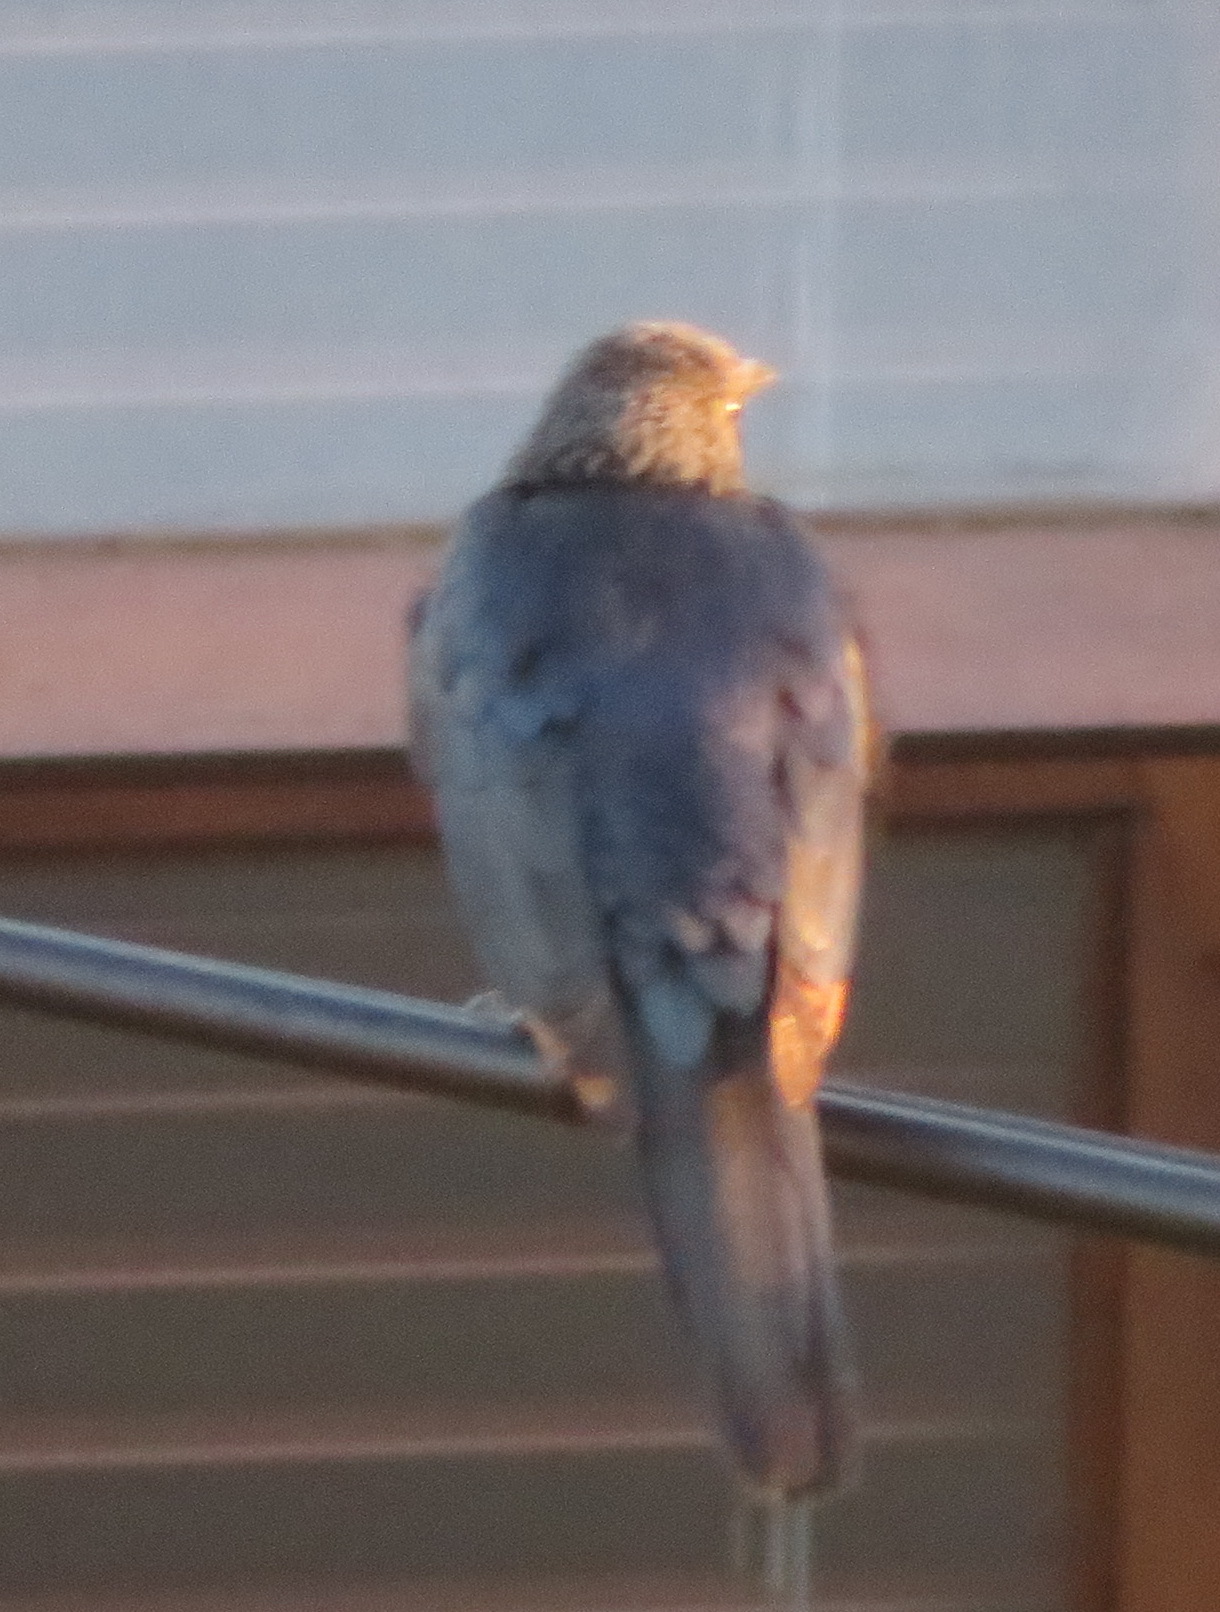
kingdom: Animalia
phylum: Chordata
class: Aves
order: Passeriformes
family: Sturnidae
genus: Onychognathus
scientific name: Onychognathus morio
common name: Red-winged starling
